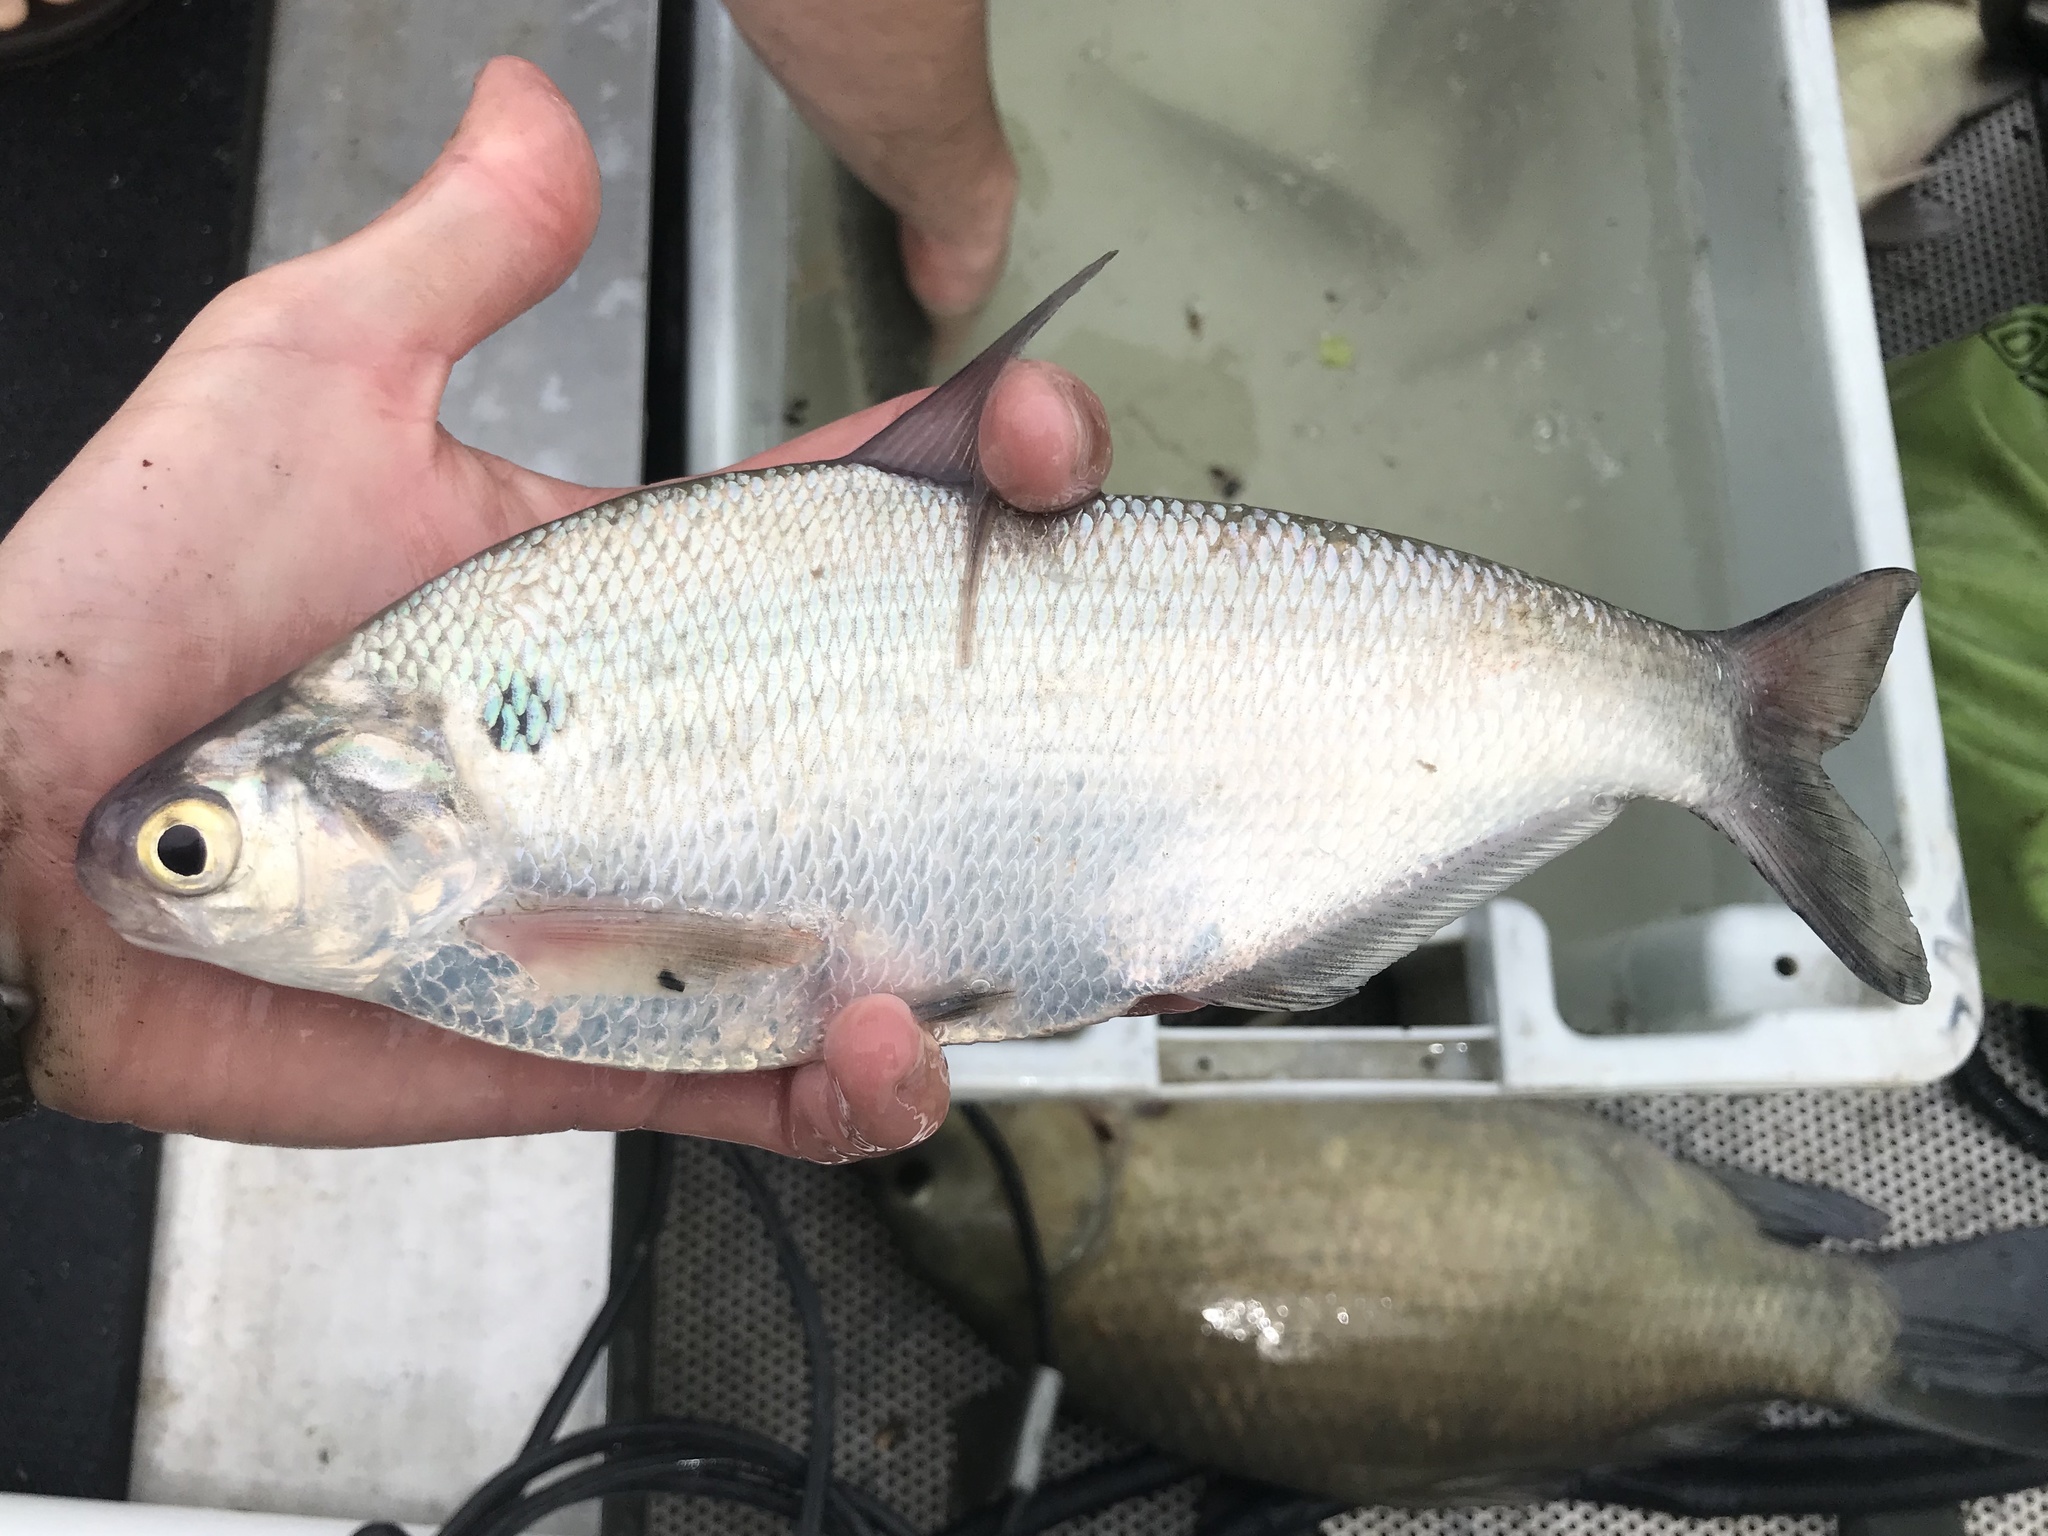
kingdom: Animalia
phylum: Chordata
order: Clupeiformes
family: Clupeidae
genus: Dorosoma
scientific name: Dorosoma cepedianum
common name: Gizzard shad
